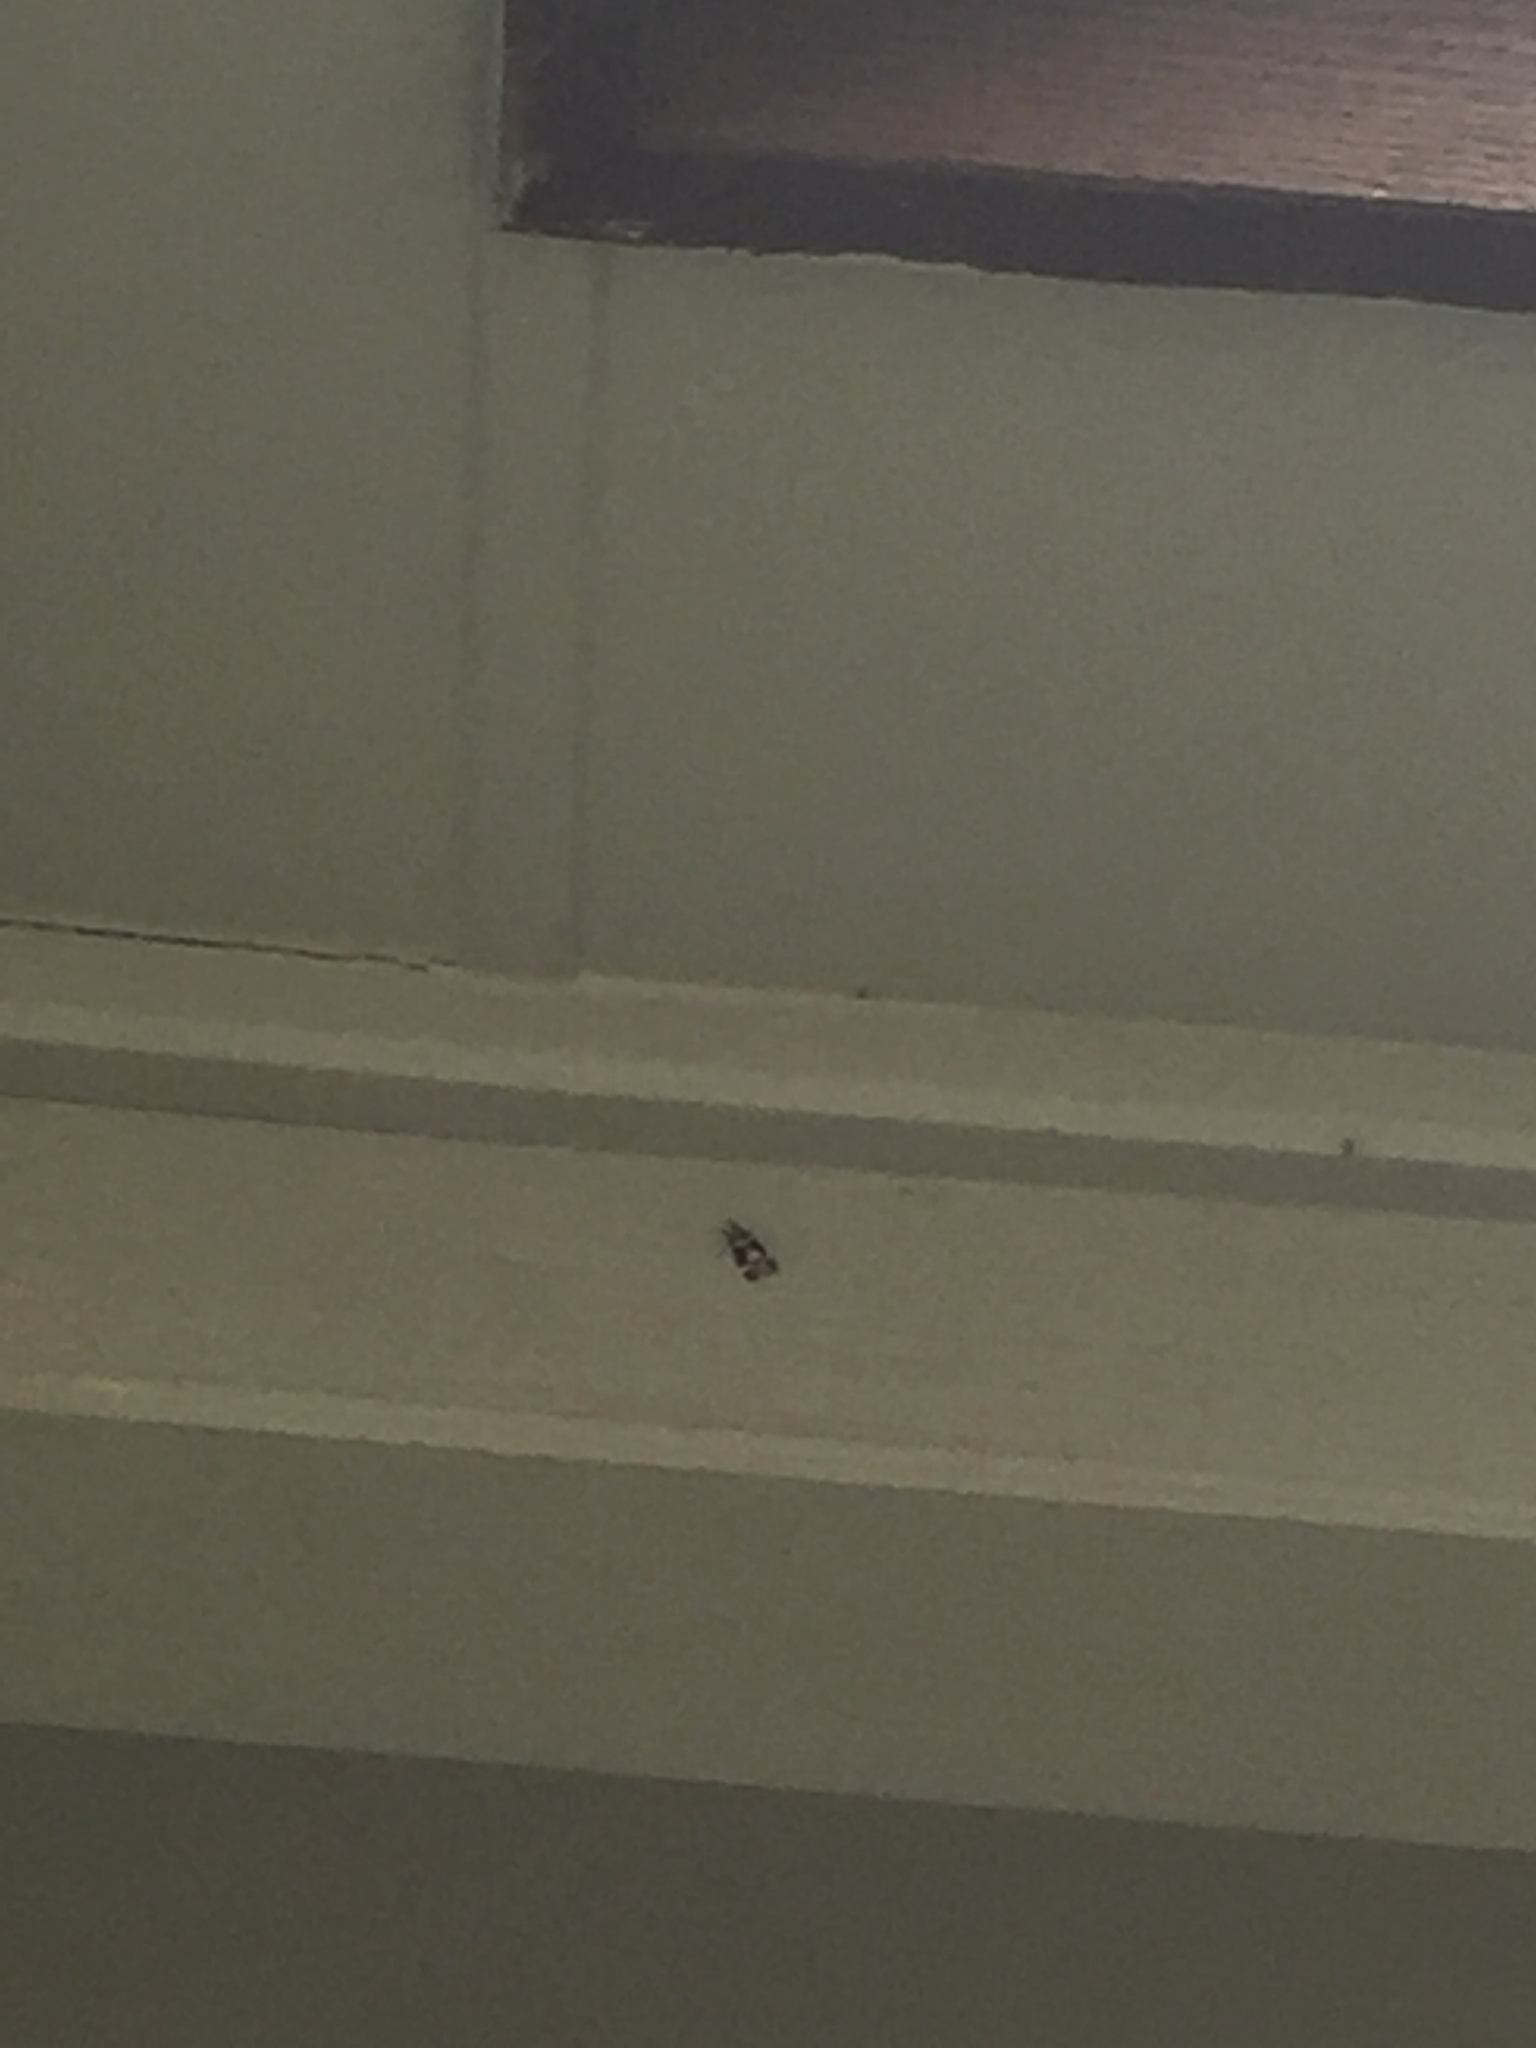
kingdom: Animalia
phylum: Arthropoda
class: Insecta
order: Lepidoptera
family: Crambidae
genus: Eudonia
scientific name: Eudonia zophochlaena
